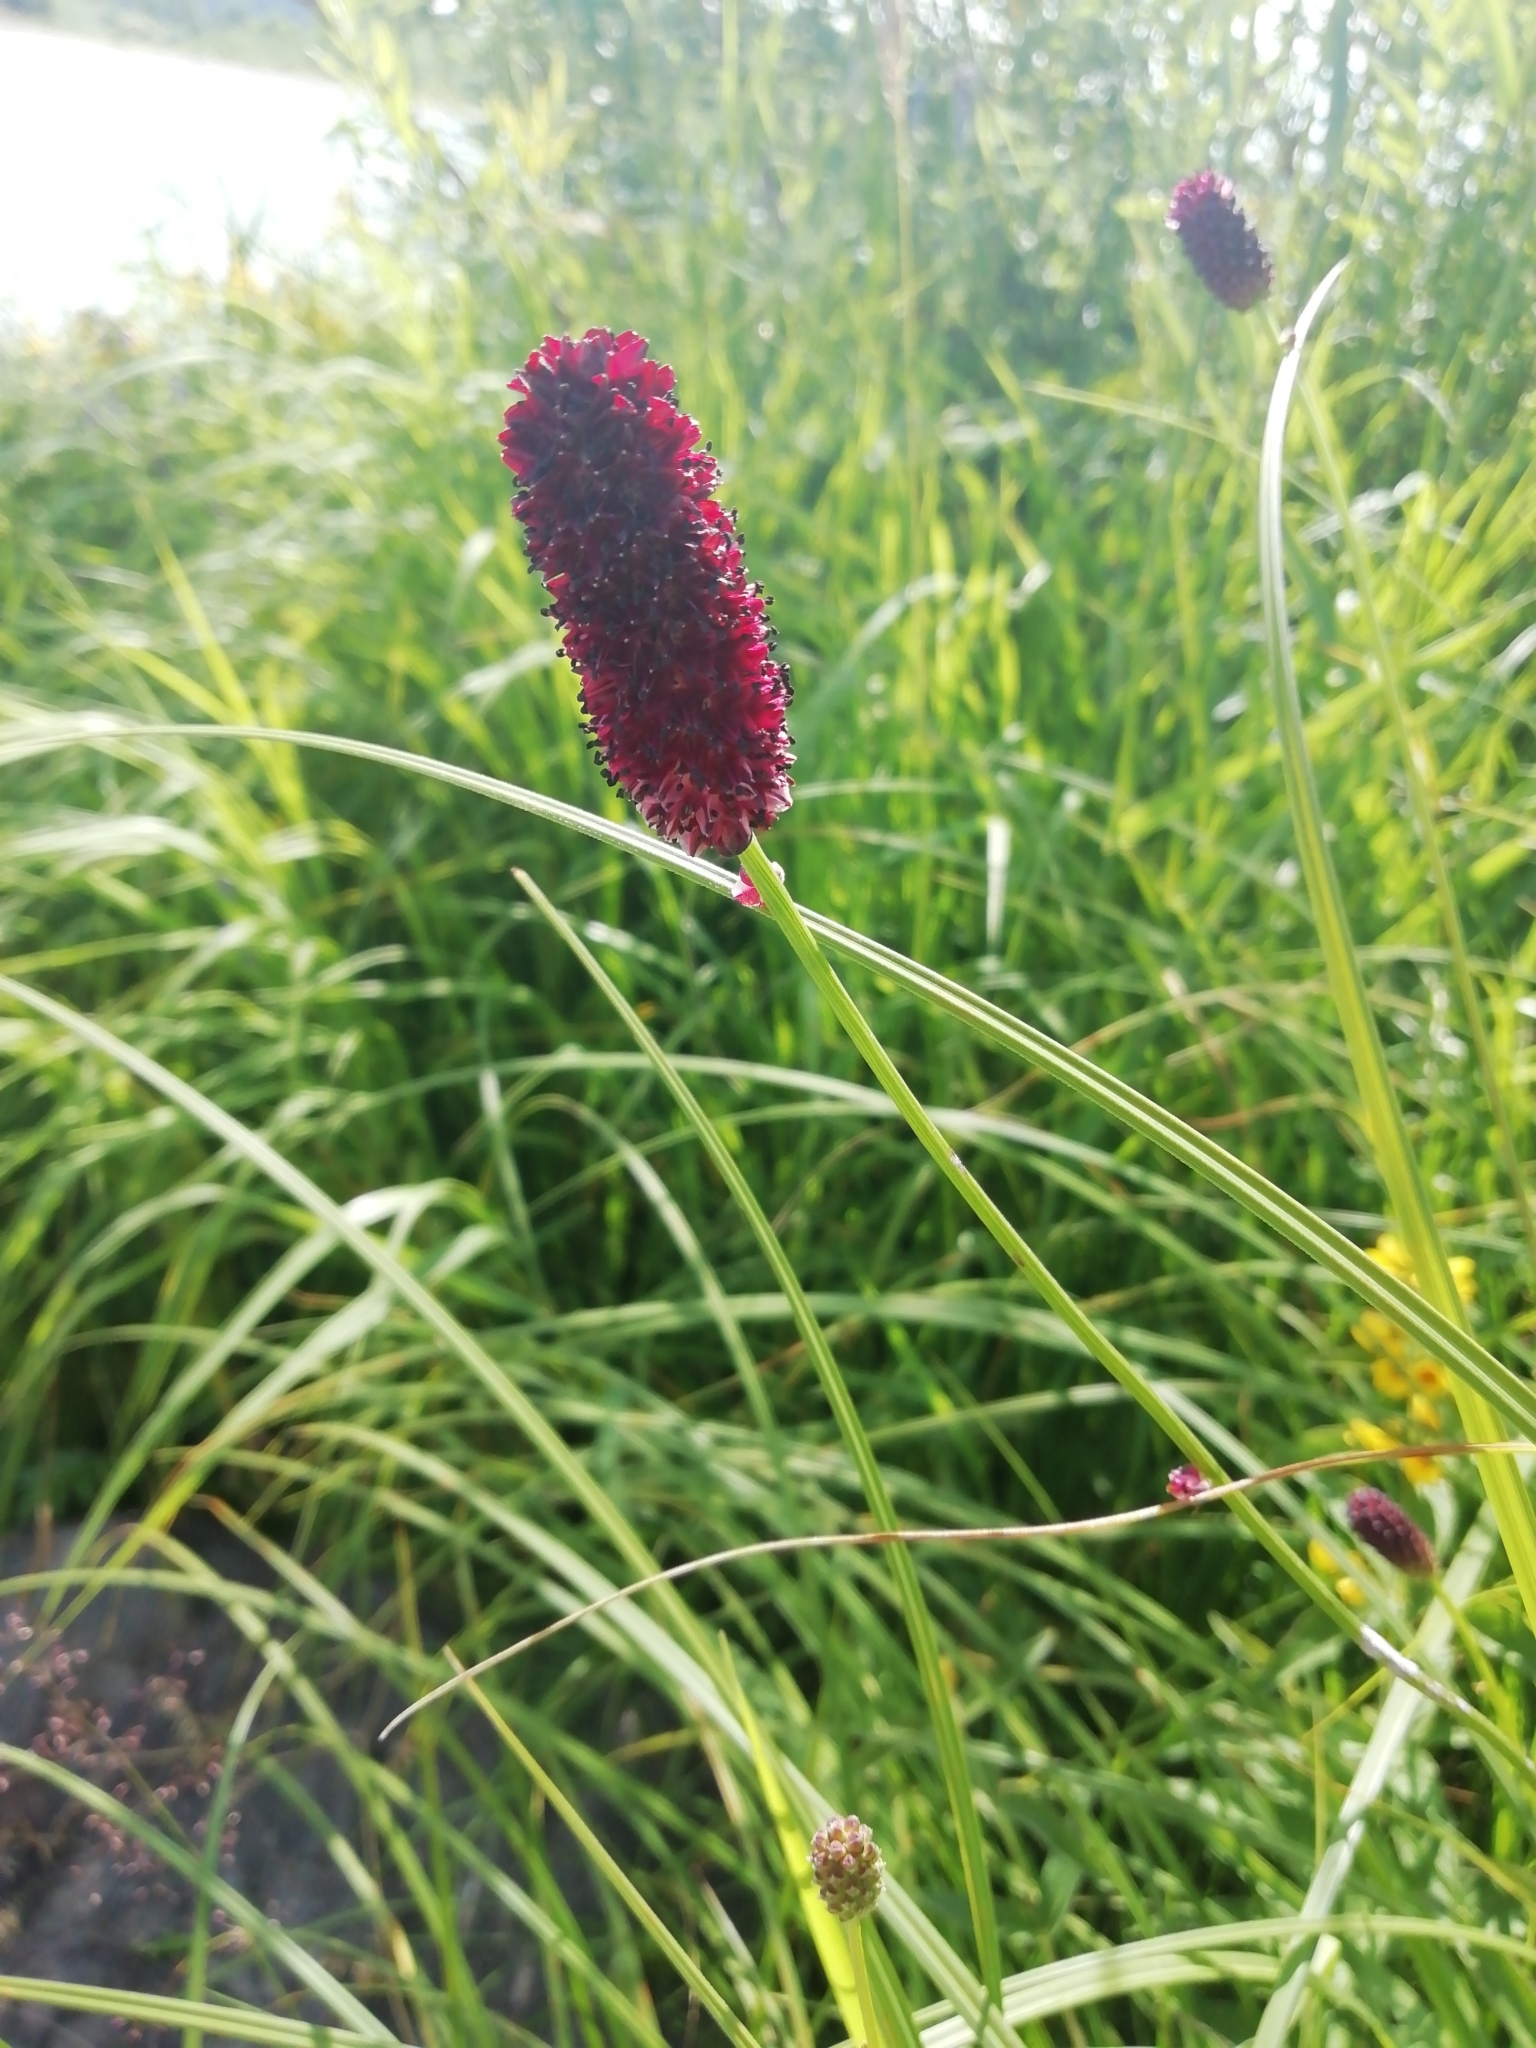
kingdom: Plantae
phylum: Tracheophyta
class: Magnoliopsida
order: Rosales
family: Rosaceae
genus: Sanguisorba
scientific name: Sanguisorba officinalis
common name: Great burnet
